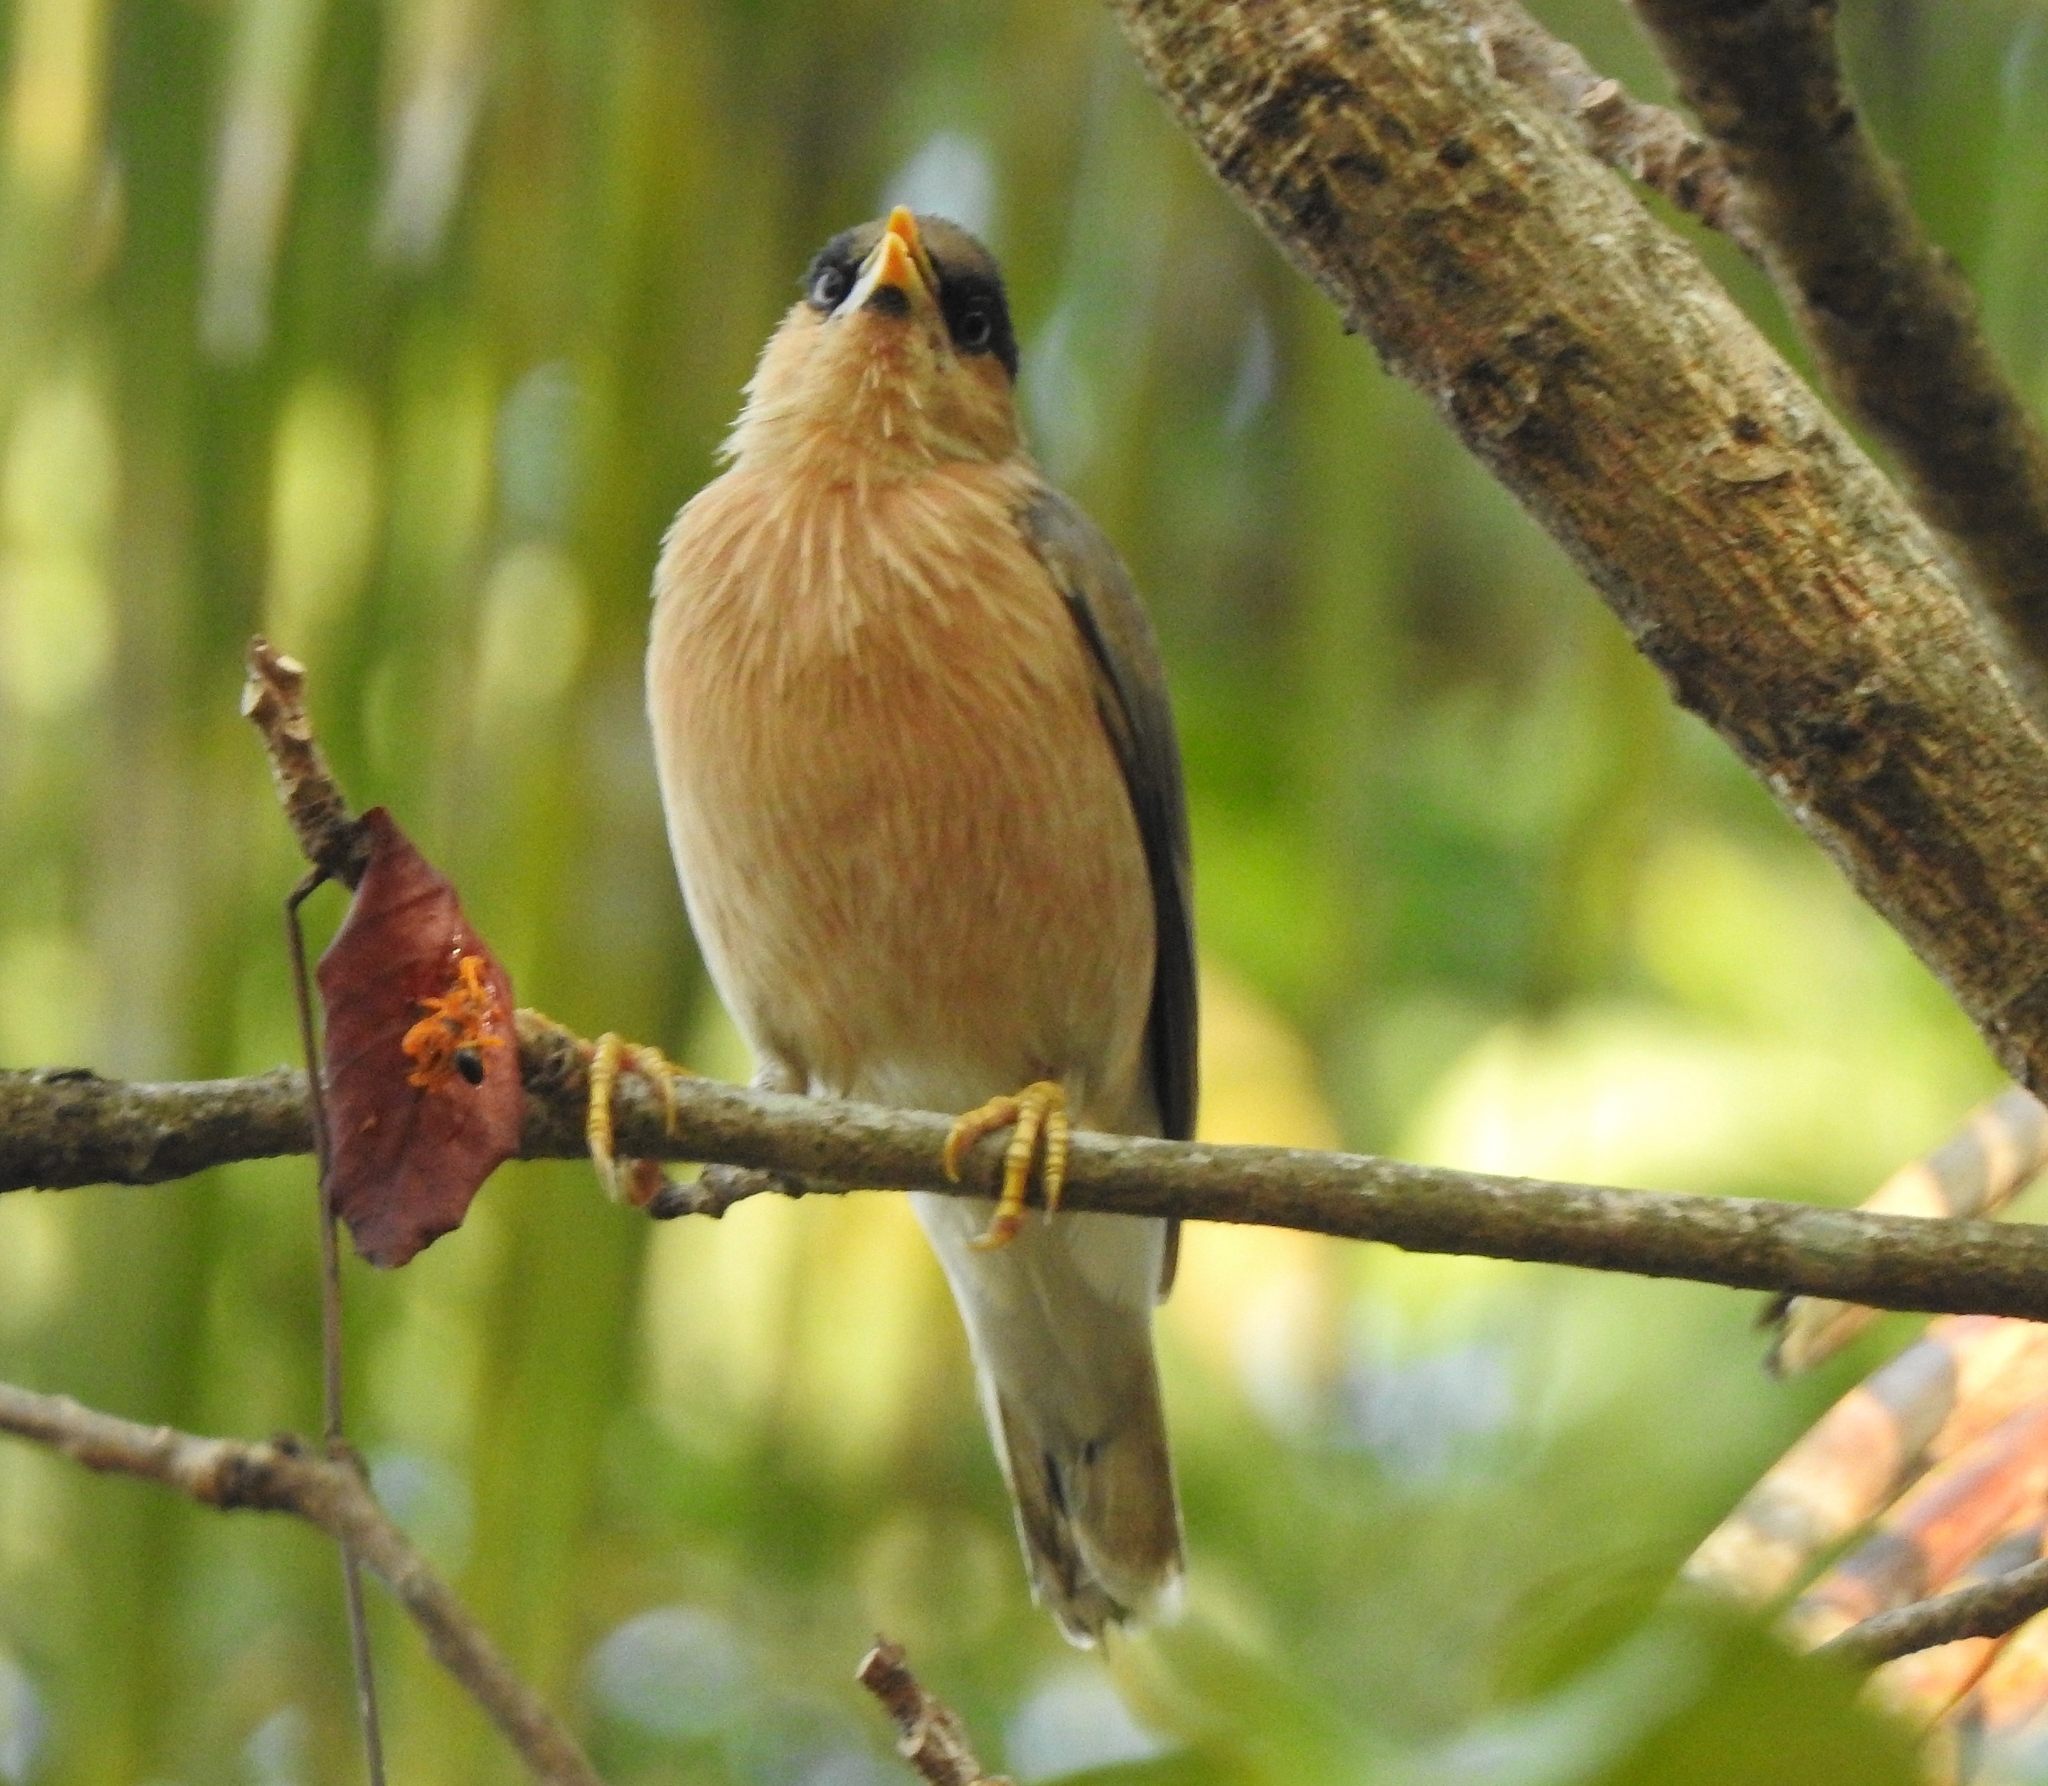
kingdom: Animalia
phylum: Chordata
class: Aves
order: Passeriformes
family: Sturnidae
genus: Sturnia
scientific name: Sturnia pagodarum
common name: Brahminy starling
